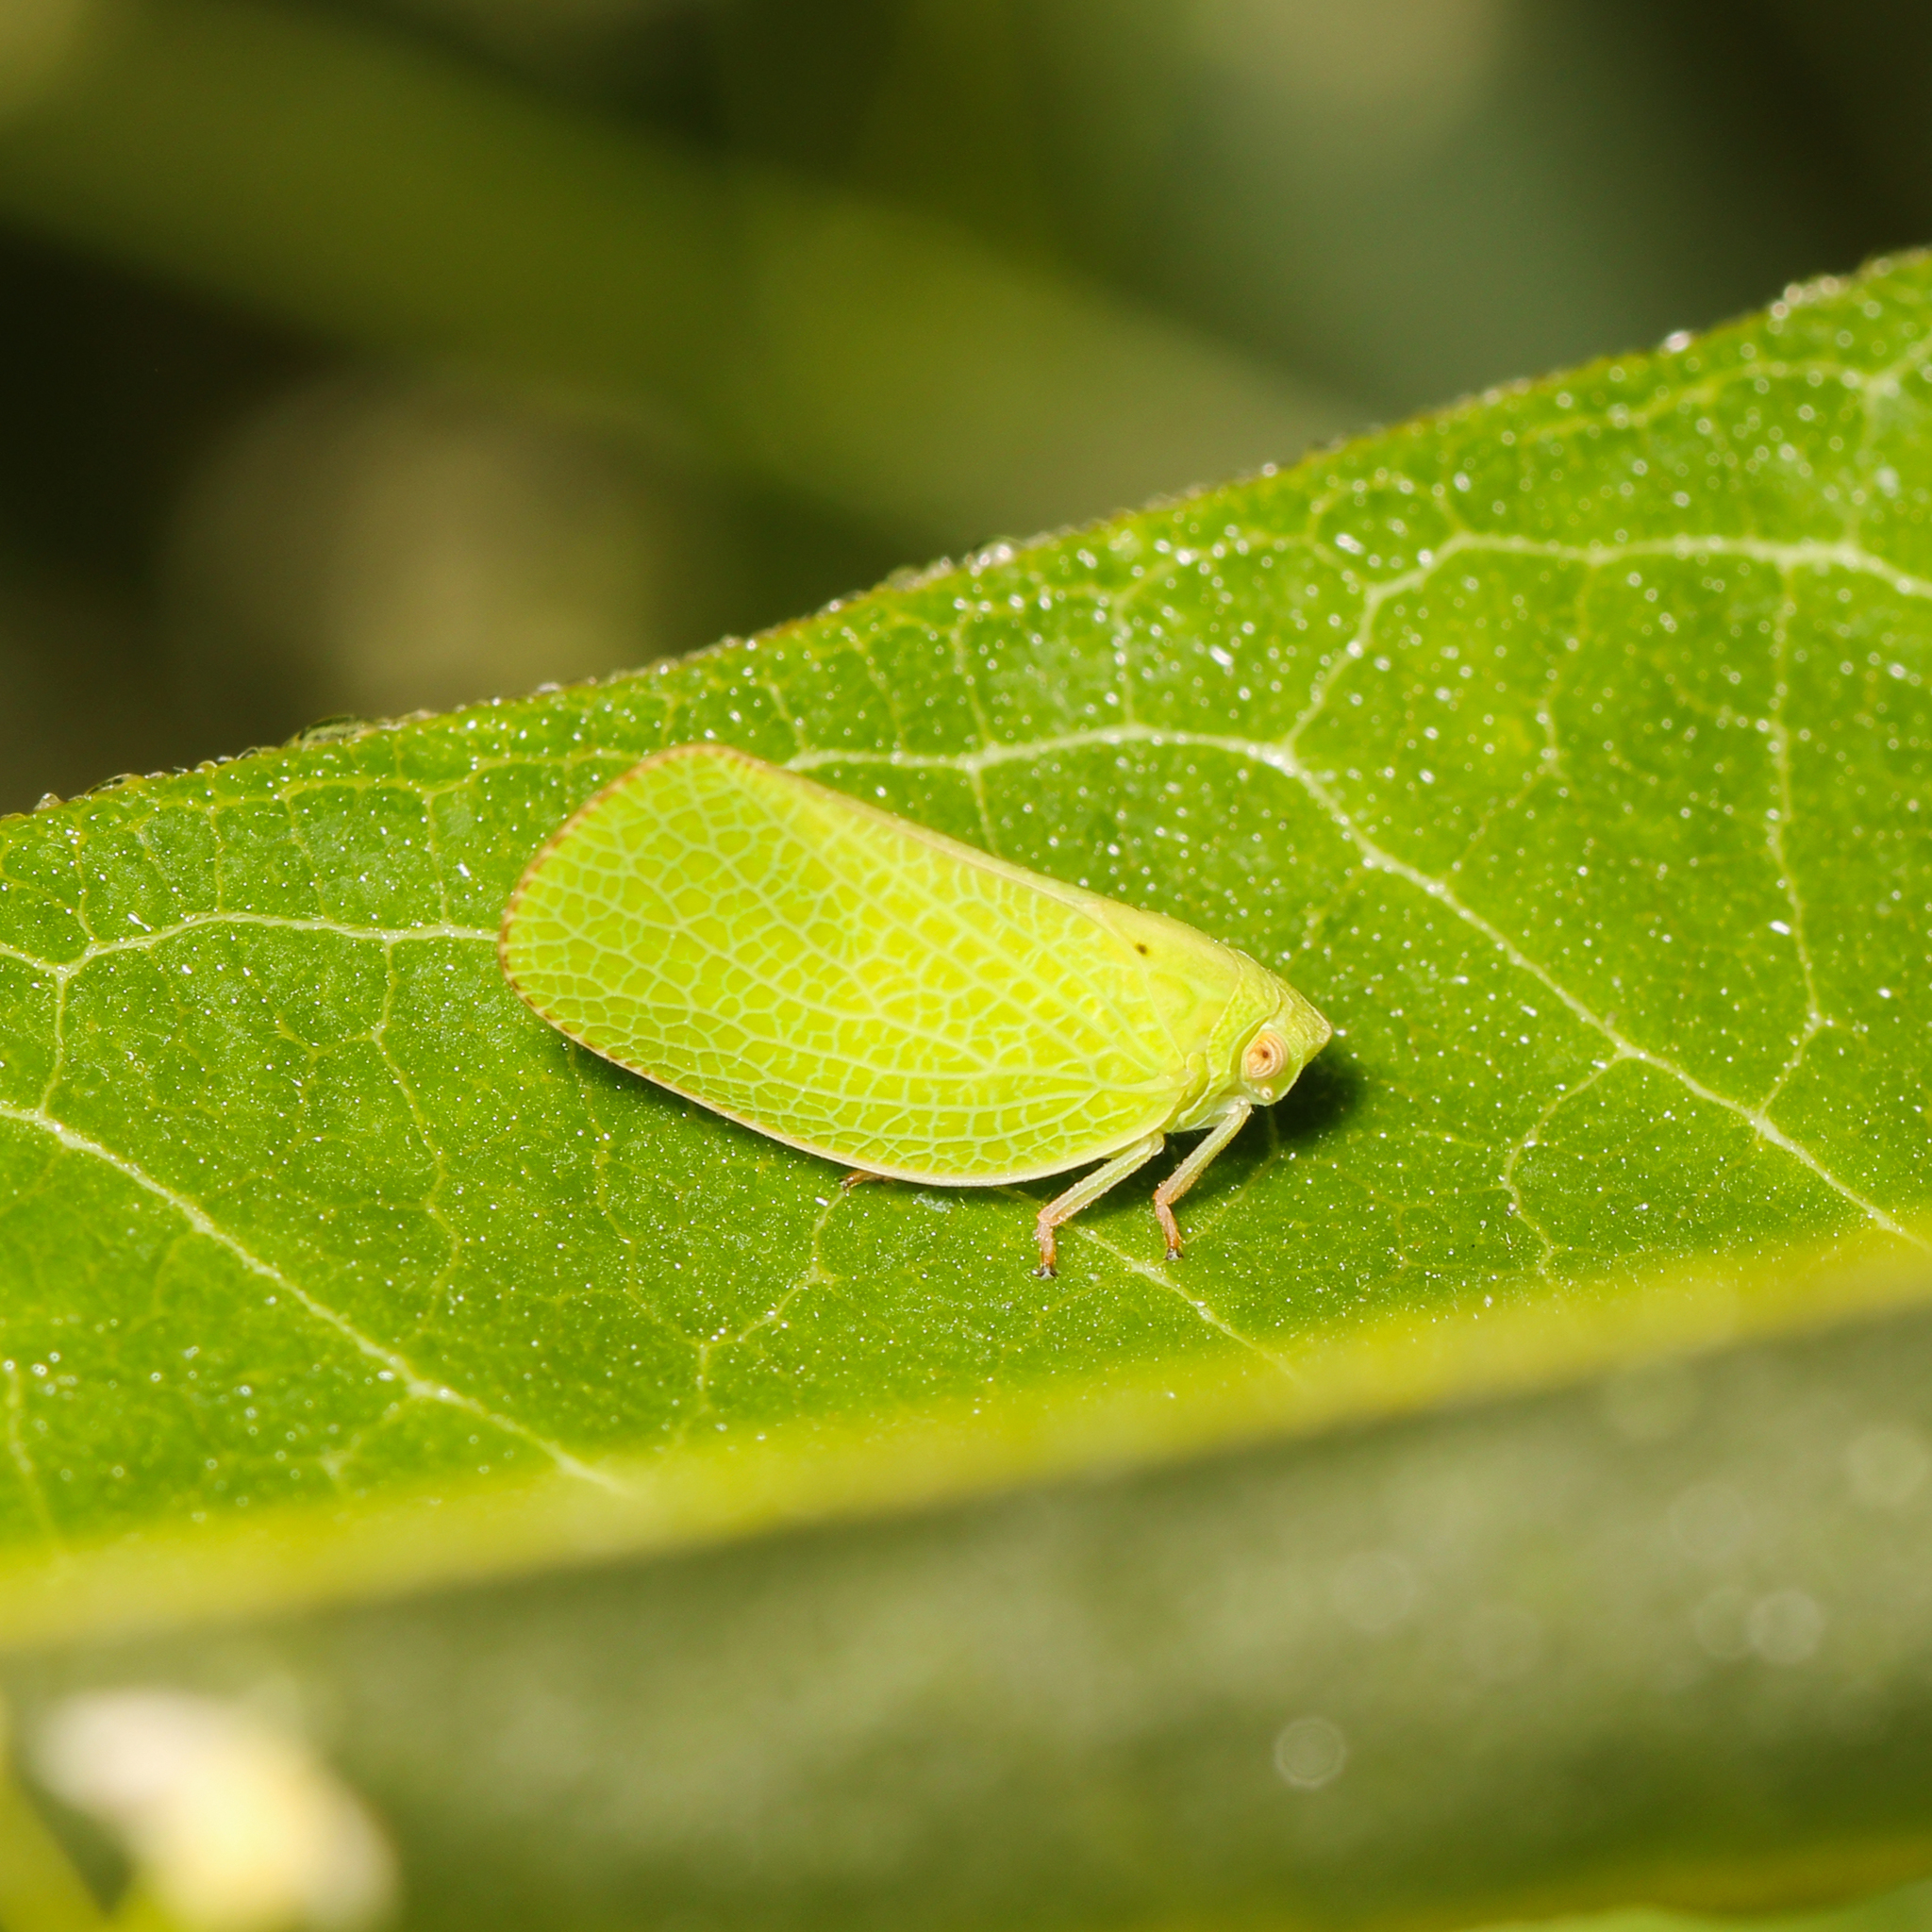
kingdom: Animalia
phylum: Arthropoda
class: Insecta
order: Hemiptera
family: Acanaloniidae
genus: Acanalonia
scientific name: Acanalonia conica
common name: Green cone-headed planthopper
